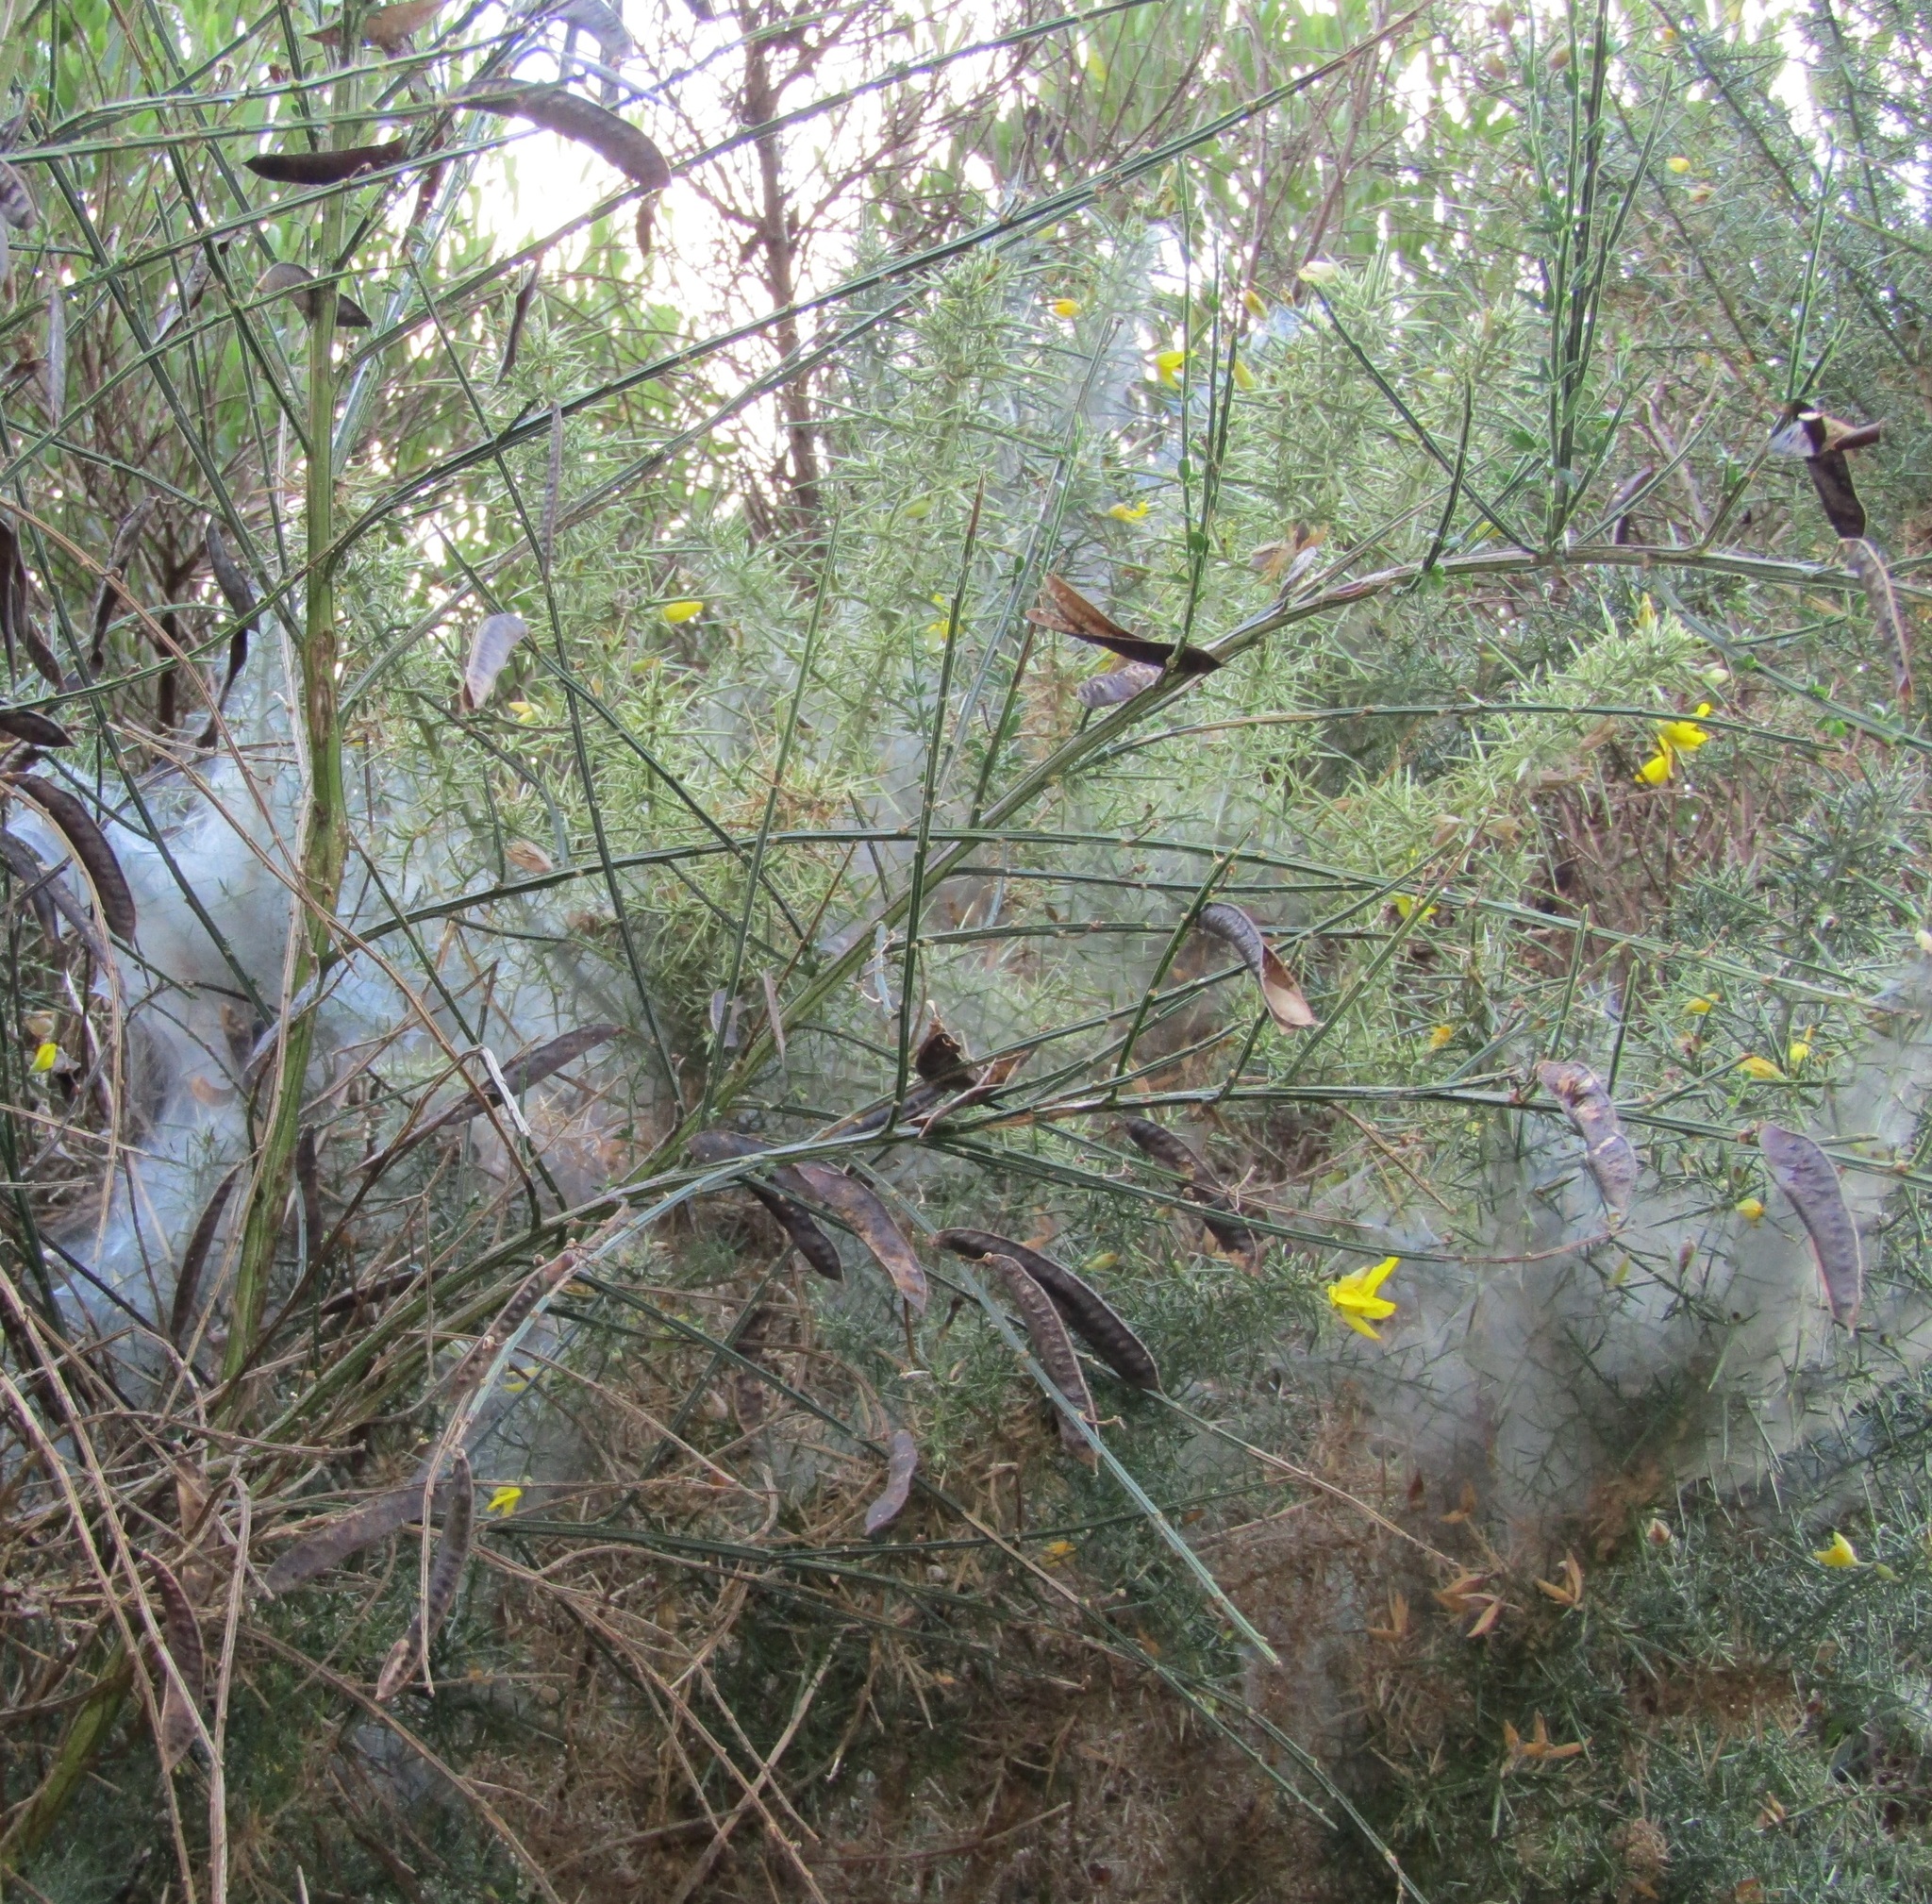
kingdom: Animalia
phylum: Arthropoda
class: Arachnida
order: Trombidiformes
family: Tetranychidae
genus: Tetranychus
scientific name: Tetranychus lintearius
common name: Gorse spider mite
